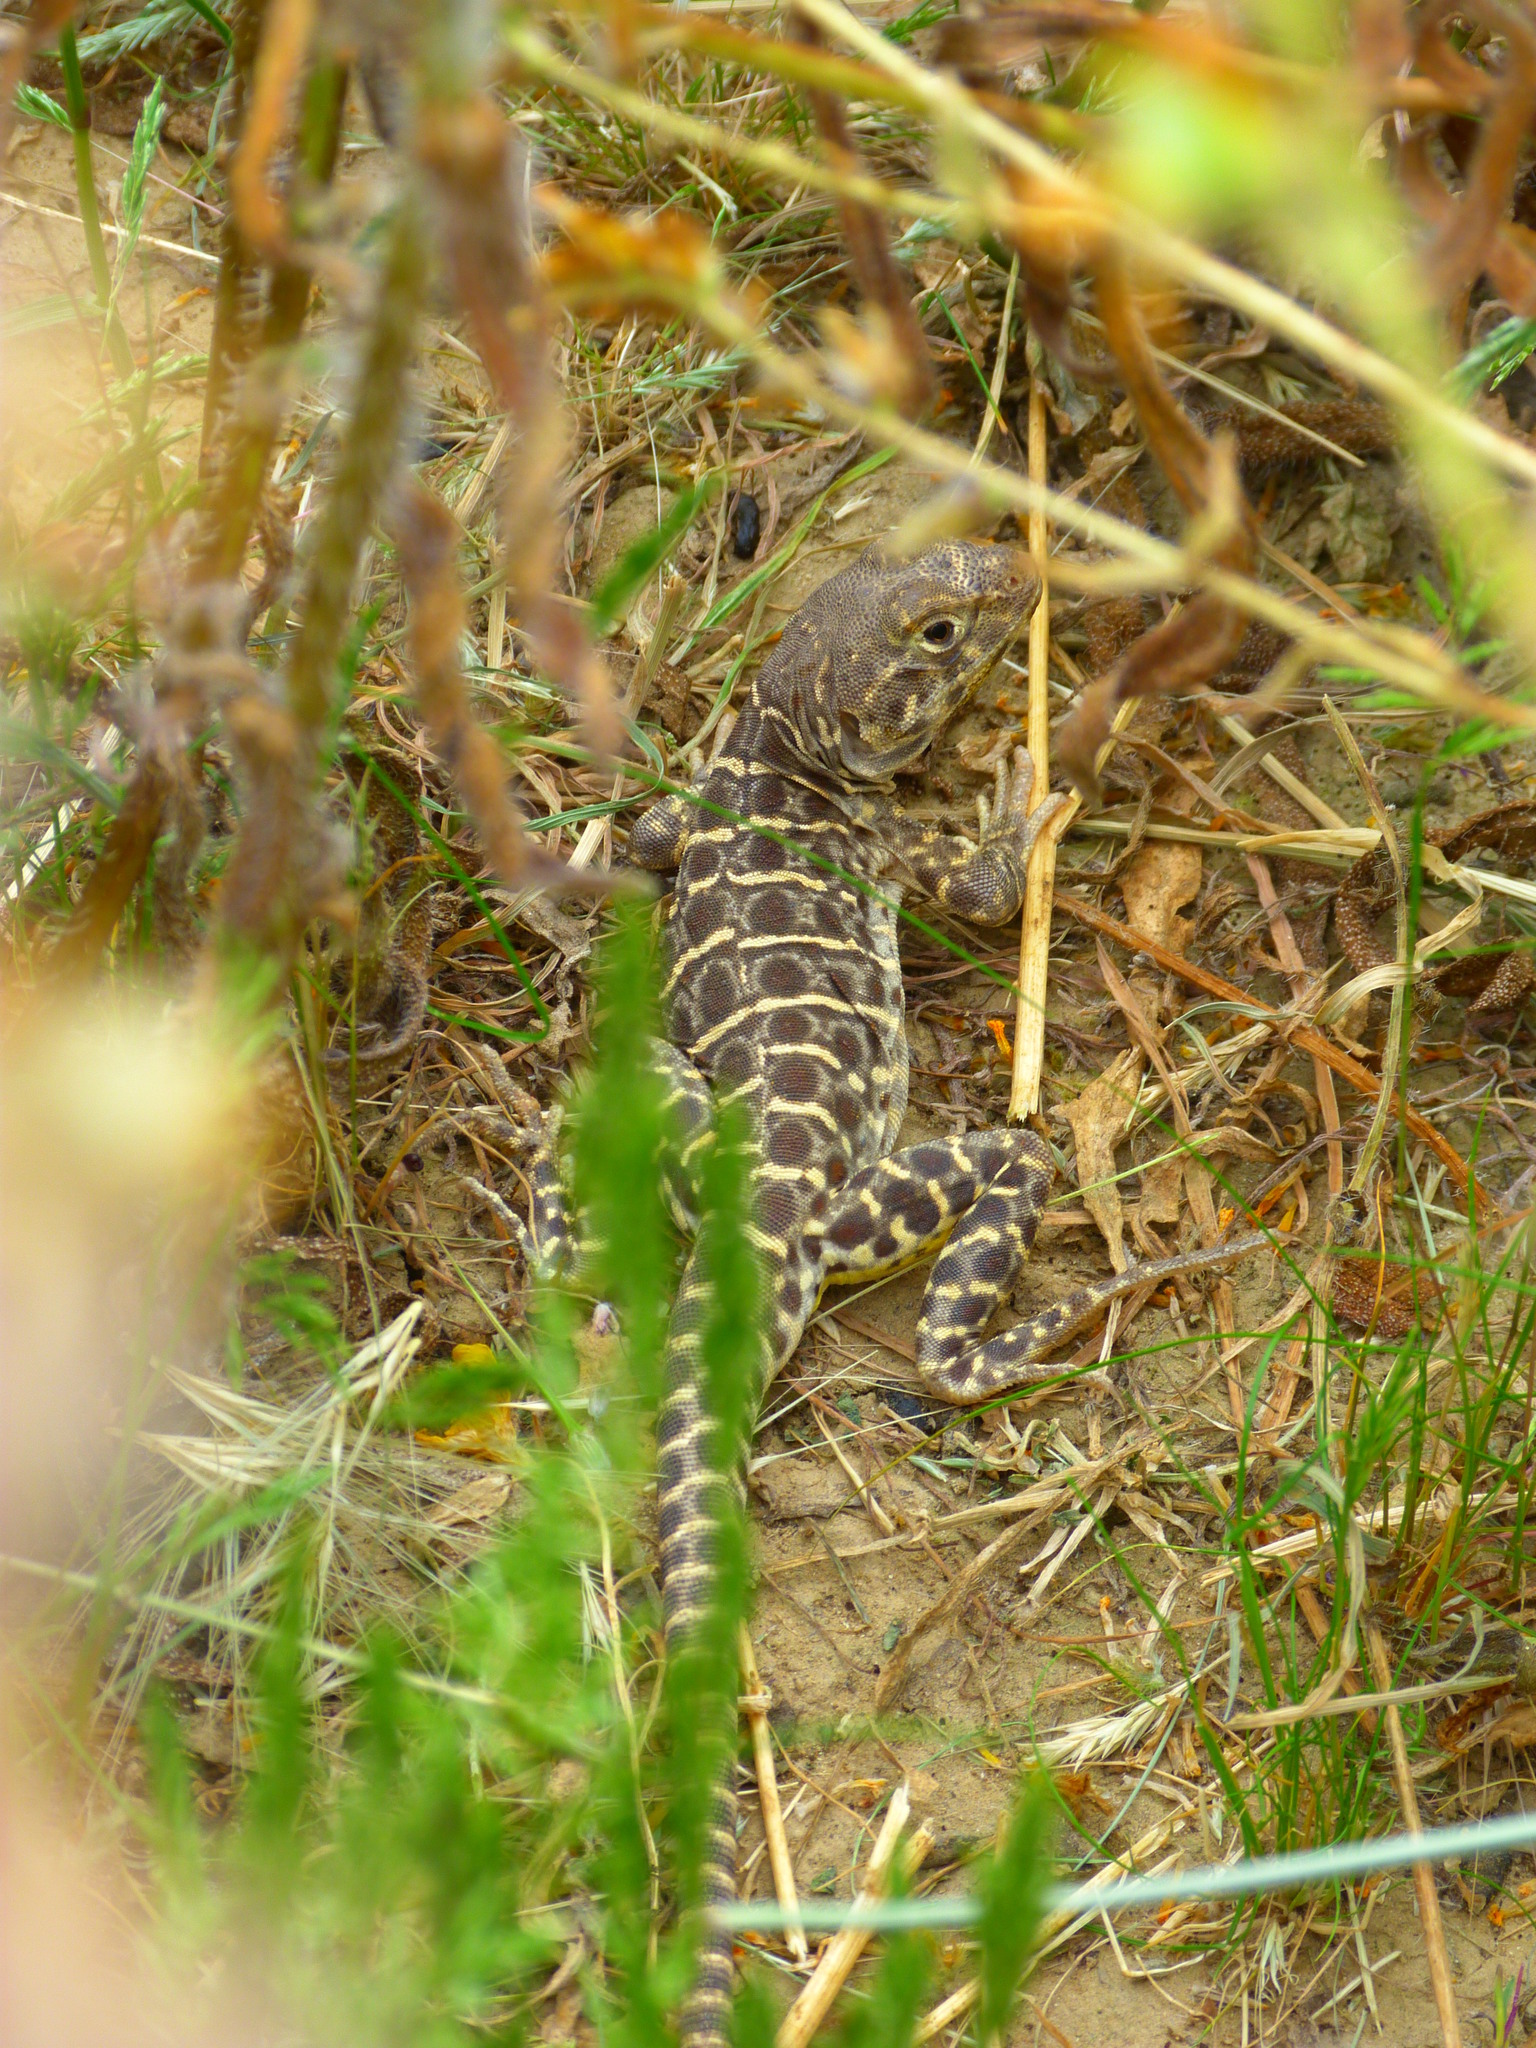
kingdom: Animalia
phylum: Chordata
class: Squamata
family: Crotaphytidae
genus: Gambelia
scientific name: Gambelia sila
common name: San joaquin leopard lizard
